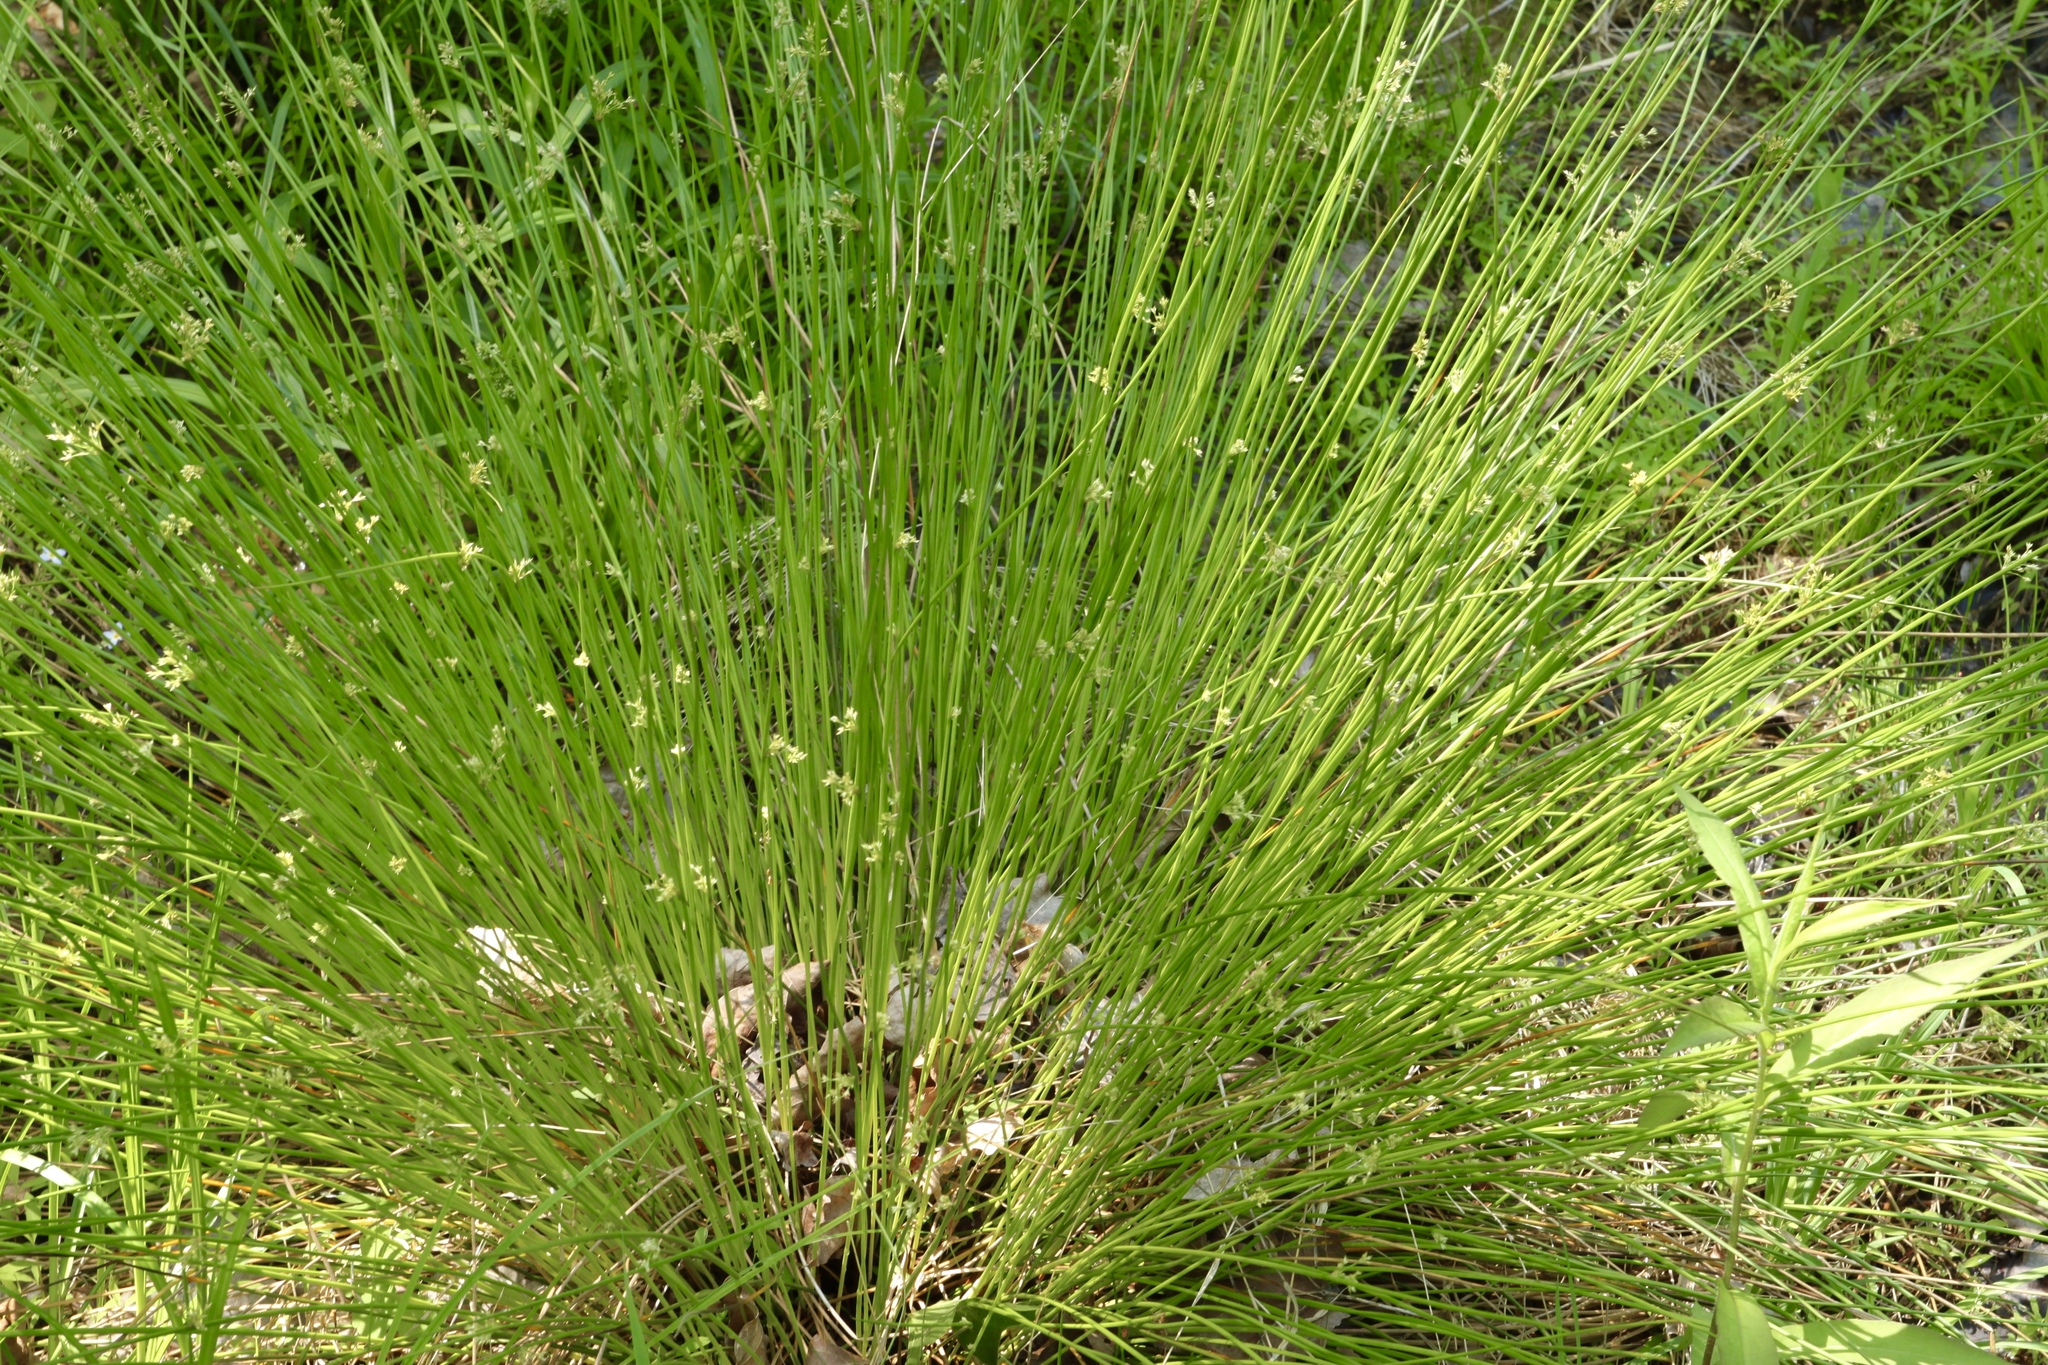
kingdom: Plantae
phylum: Tracheophyta
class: Liliopsida
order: Poales
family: Juncaceae
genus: Juncus
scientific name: Juncus effusus
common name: Soft rush
